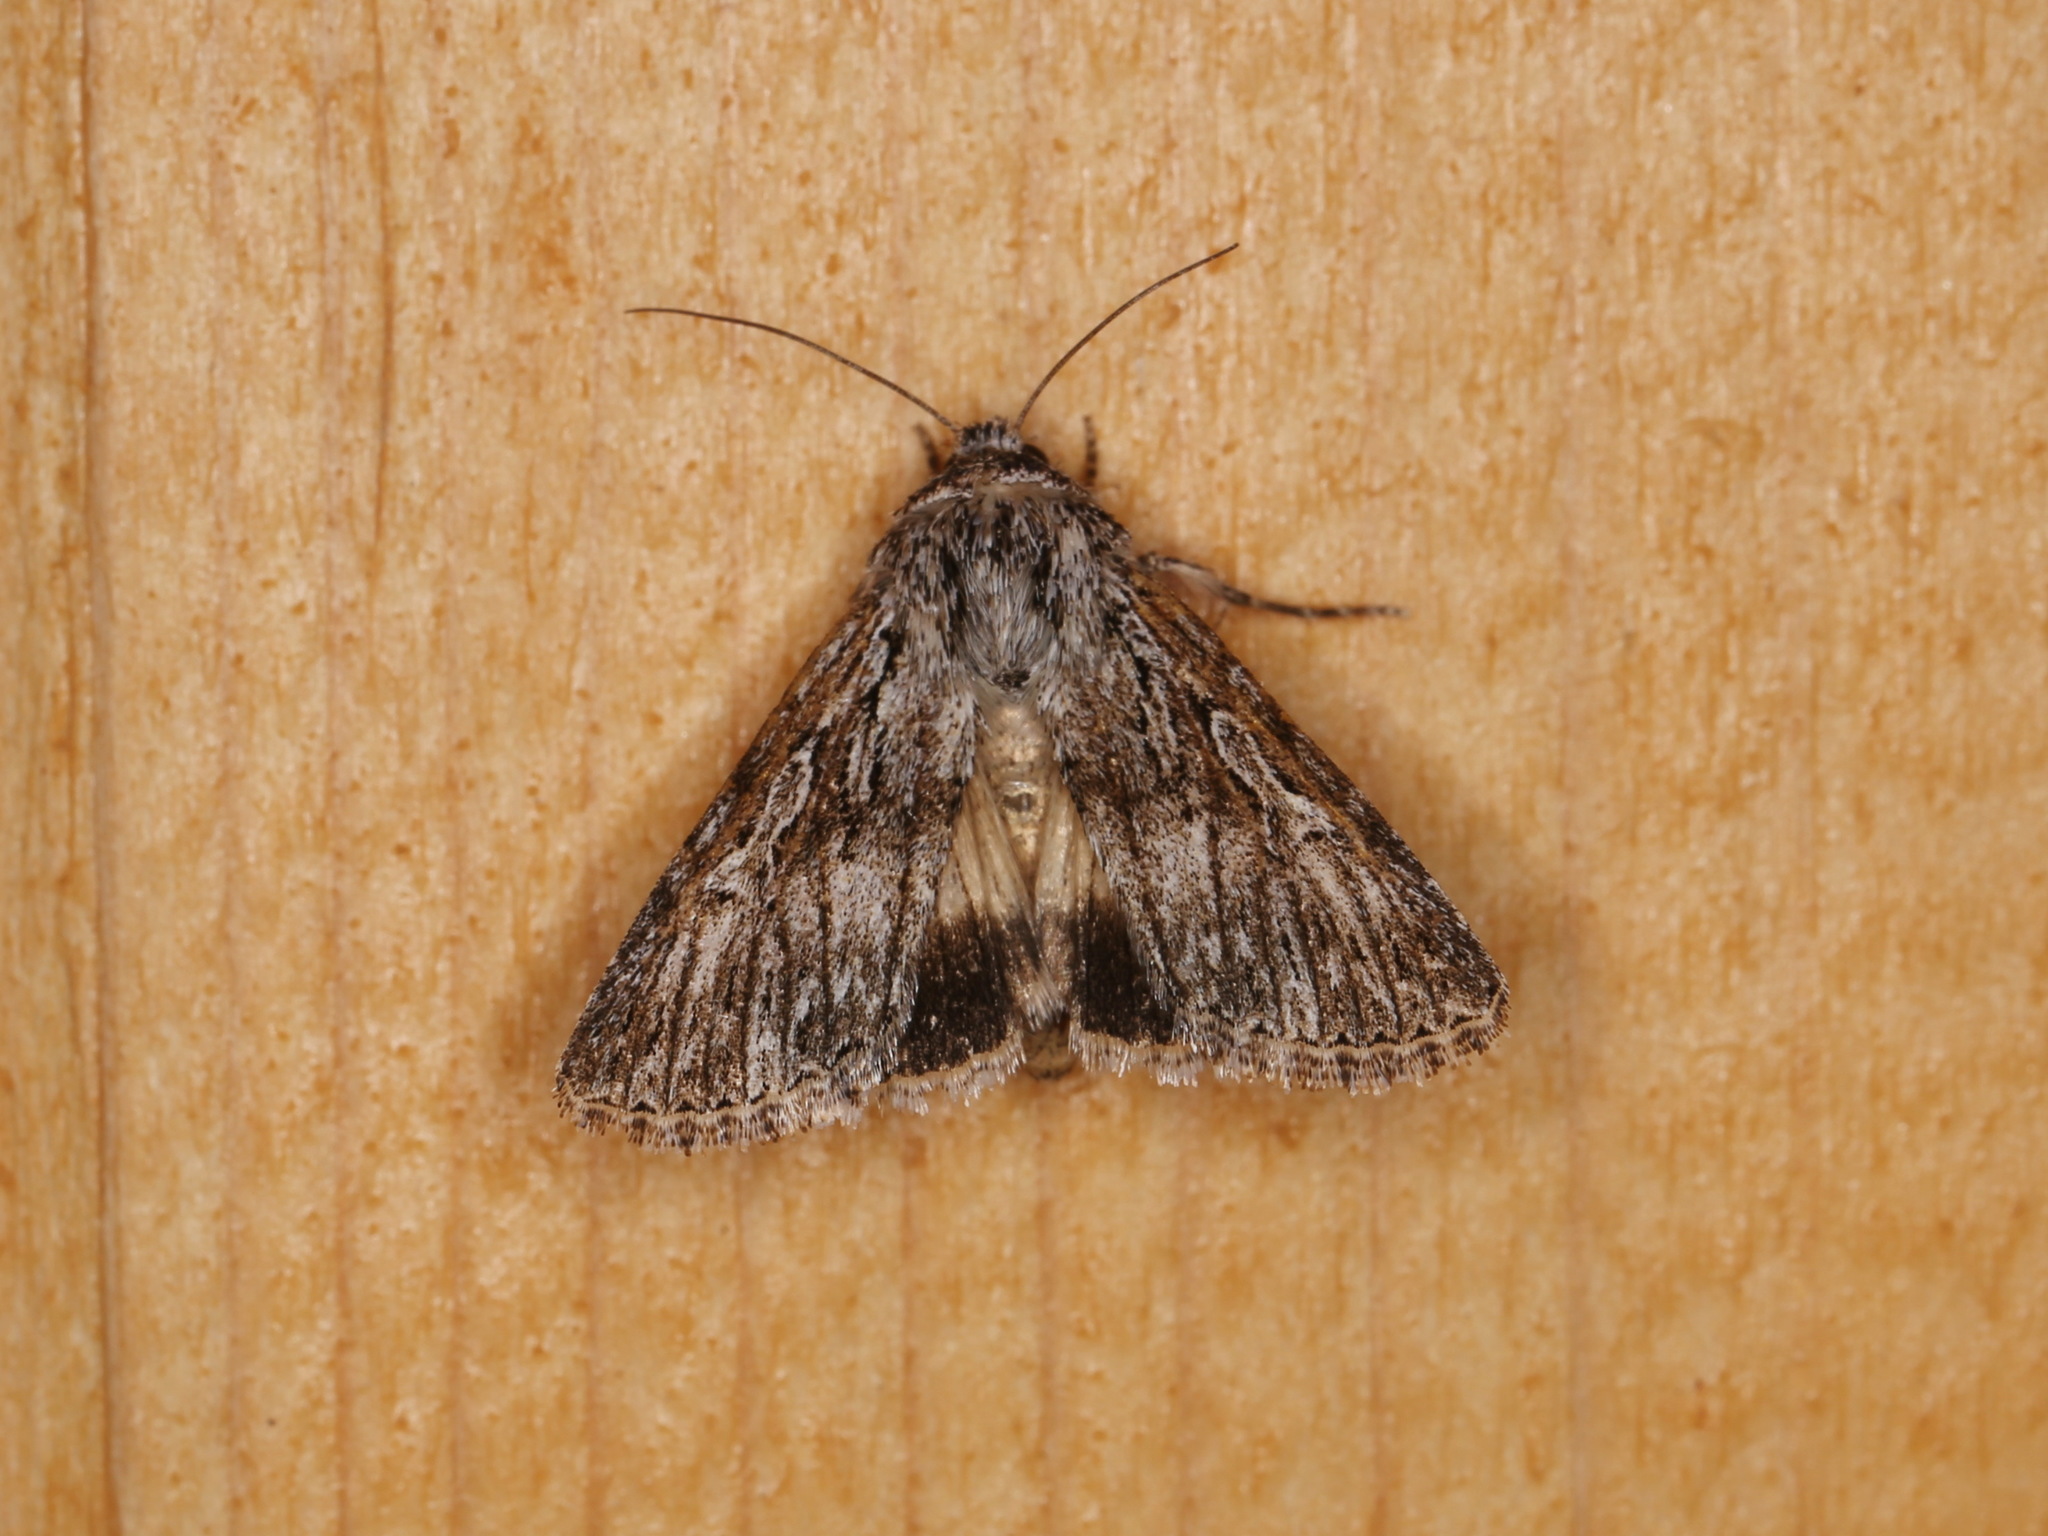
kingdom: Animalia
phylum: Arthropoda
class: Insecta
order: Lepidoptera
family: Noctuidae
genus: Sympistis
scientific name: Sympistis poliochroa
